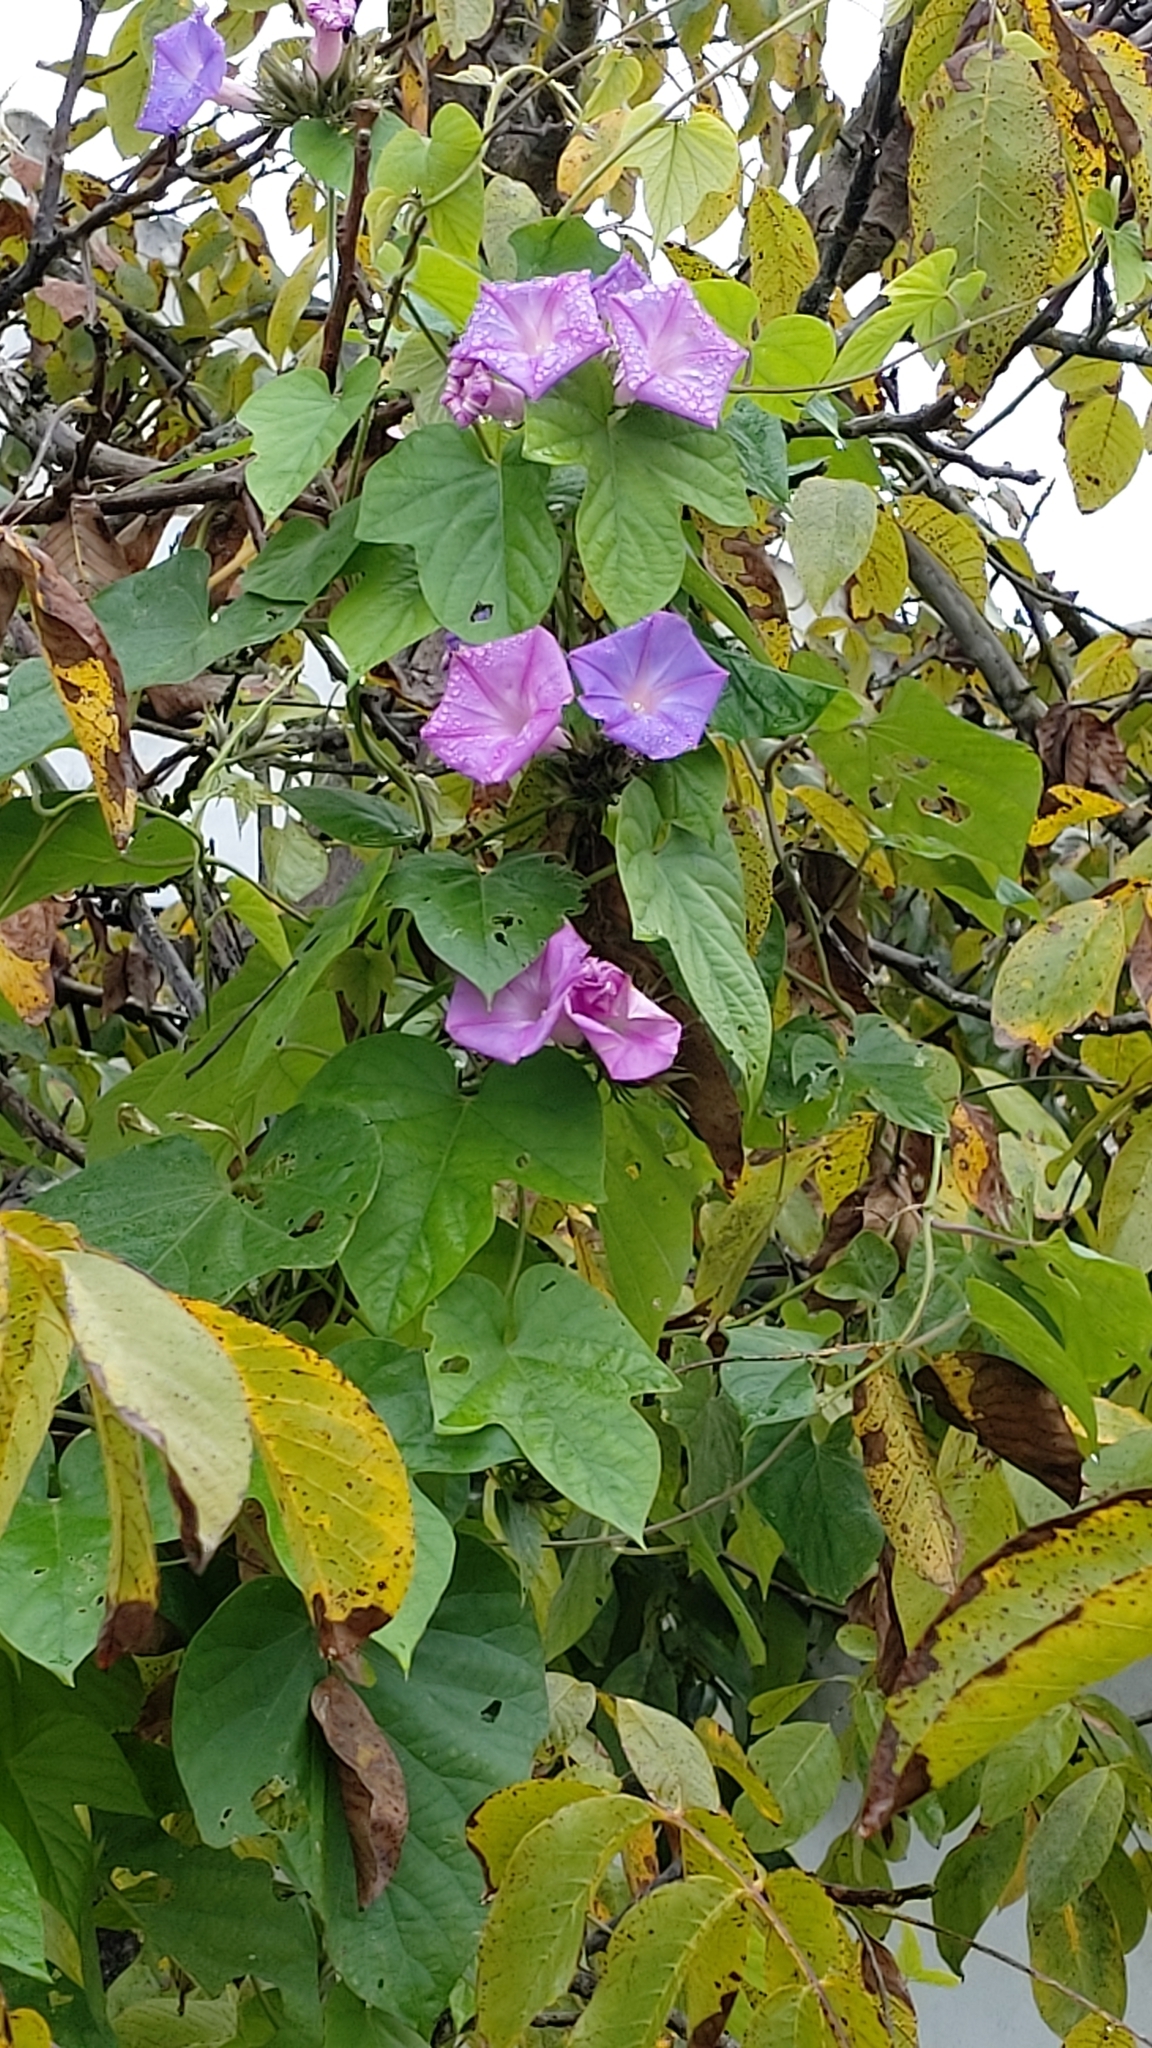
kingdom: Plantae
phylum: Tracheophyta
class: Magnoliopsida
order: Solanales
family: Convolvulaceae
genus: Ipomoea
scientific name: Ipomoea indica
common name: Blue dawnflower
